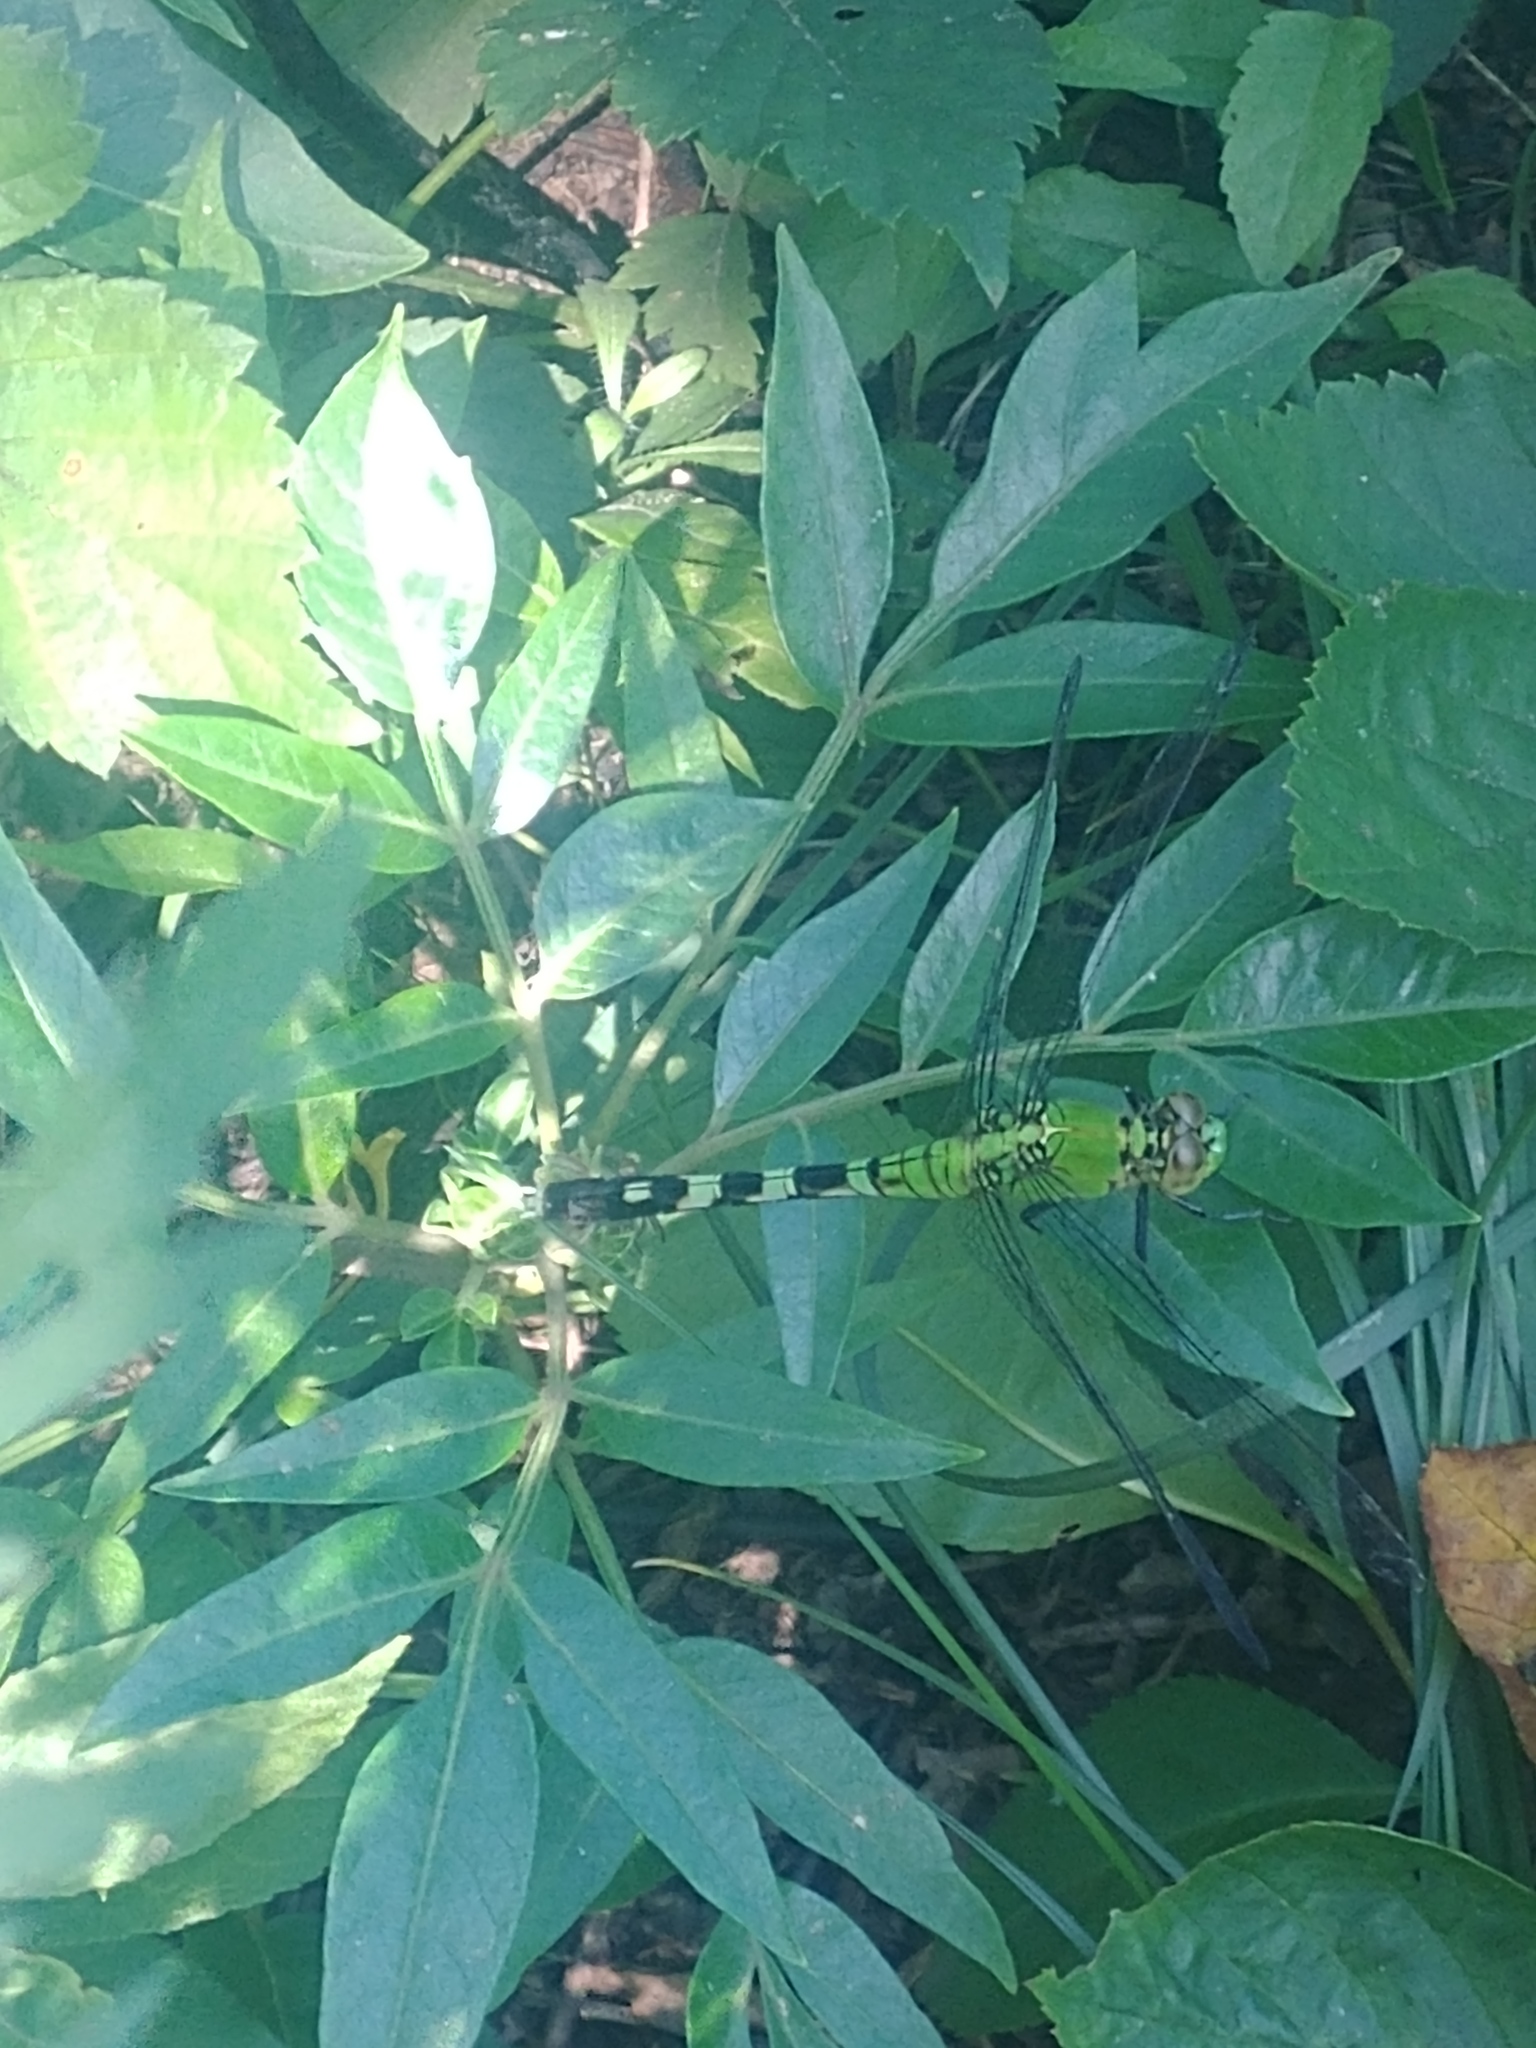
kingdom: Animalia
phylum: Arthropoda
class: Insecta
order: Odonata
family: Libellulidae
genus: Erythemis
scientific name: Erythemis simplicicollis
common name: Eastern pondhawk
